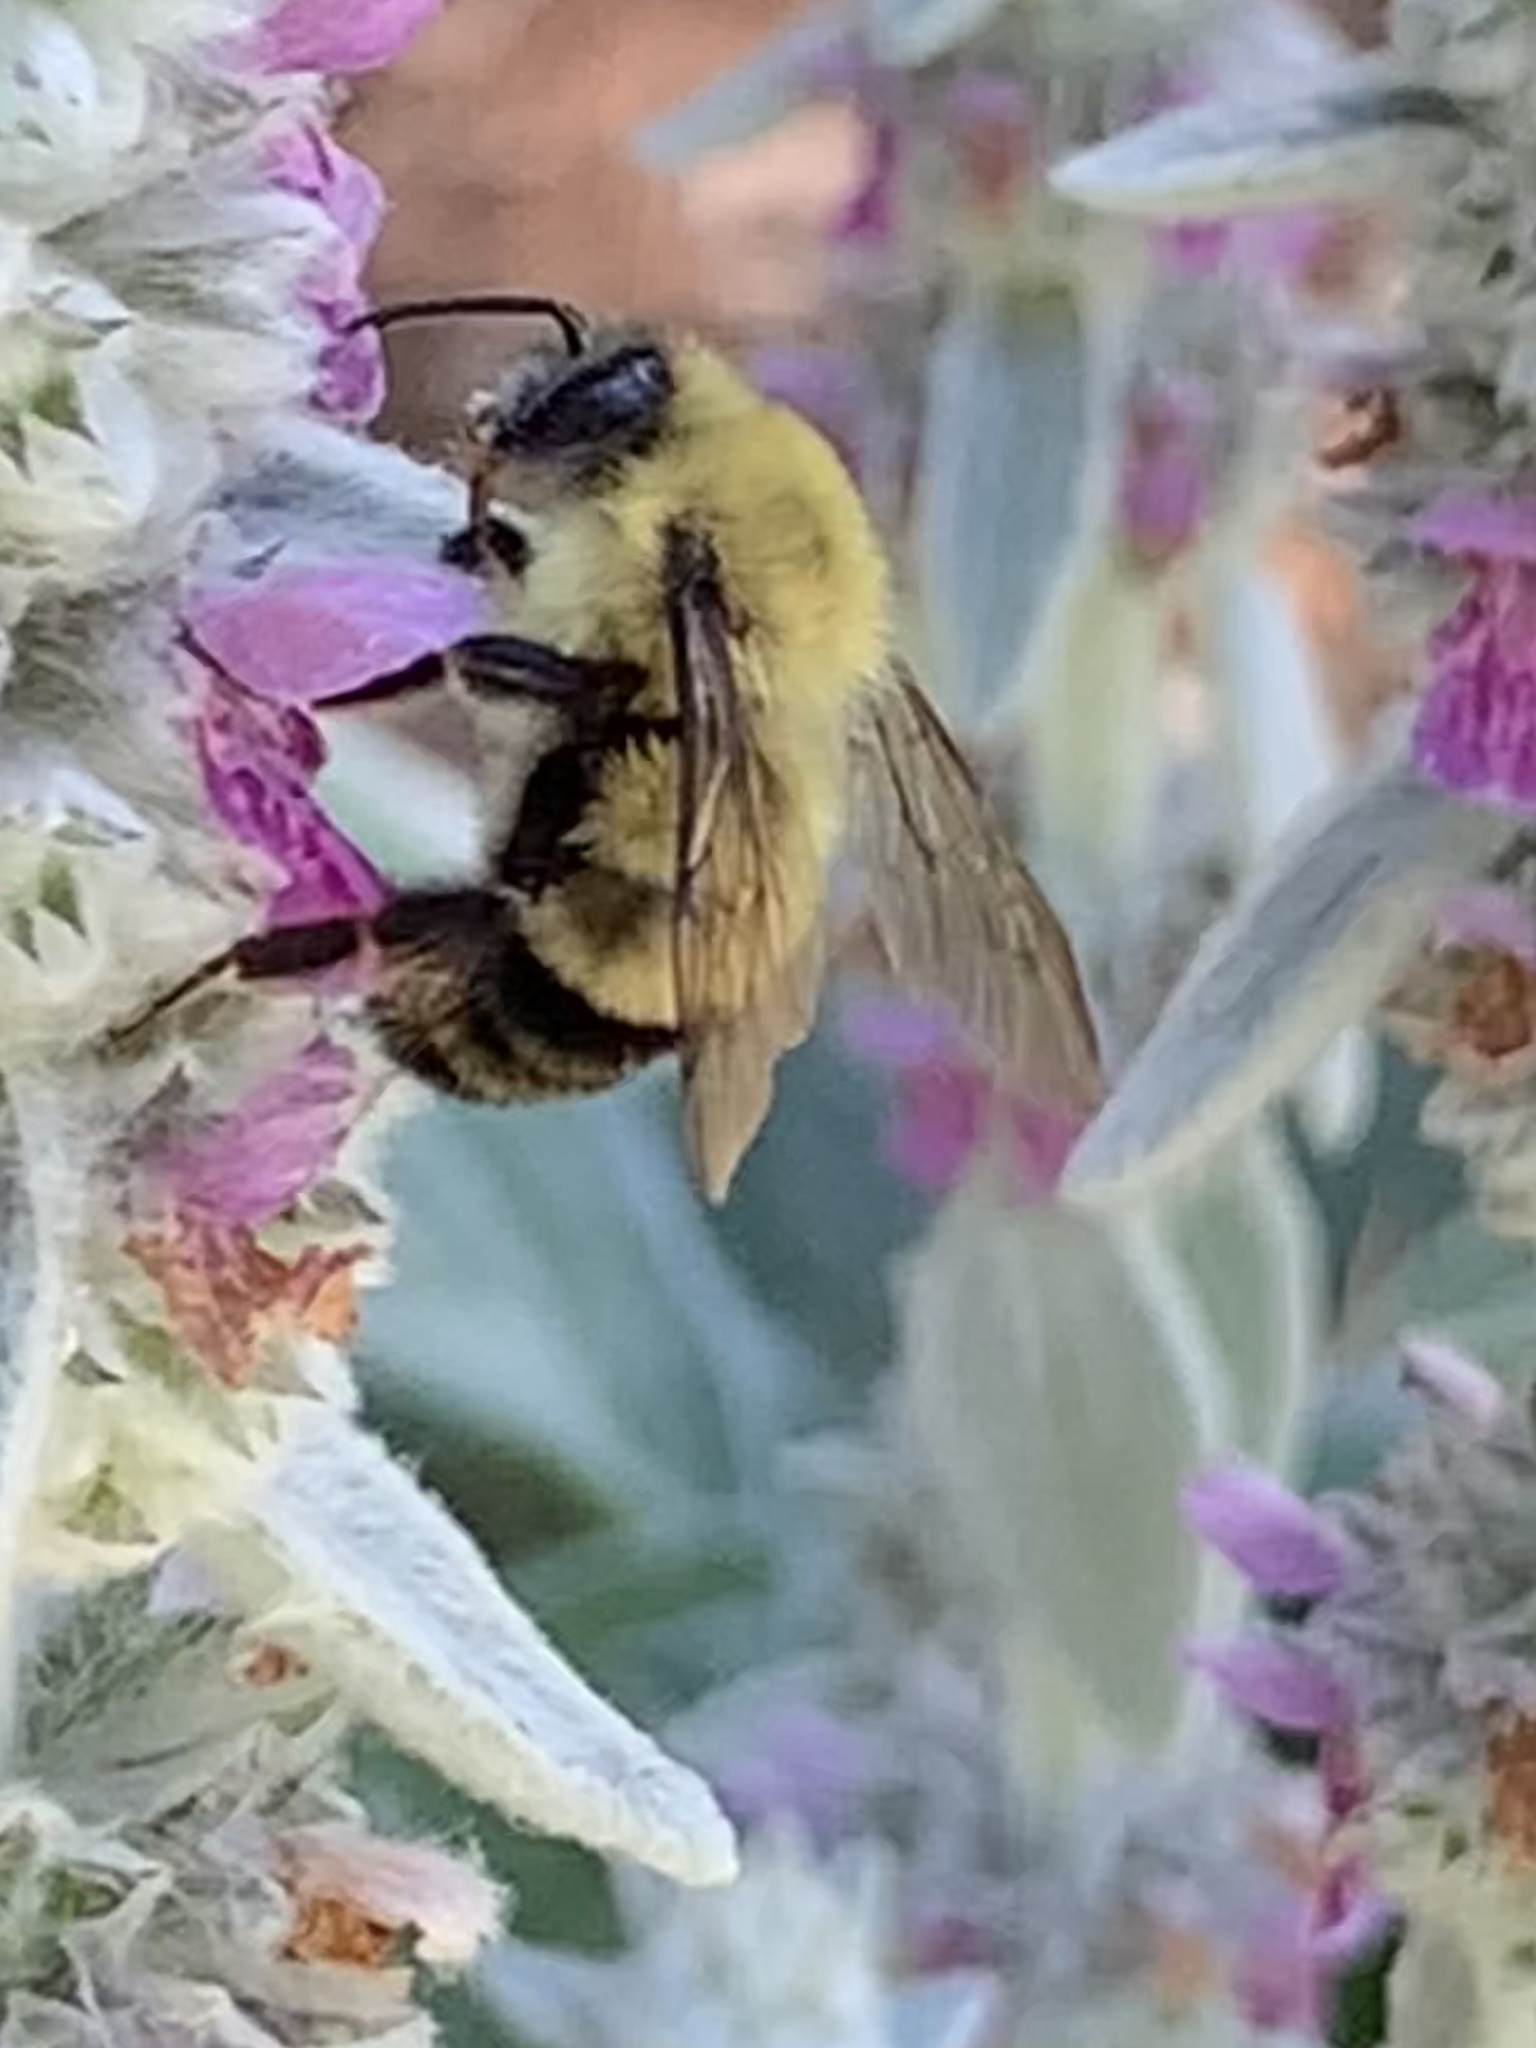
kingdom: Animalia
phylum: Arthropoda
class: Insecta
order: Hymenoptera
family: Apidae
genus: Bombus
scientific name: Bombus bimaculatus
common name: Two-spotted bumble bee
